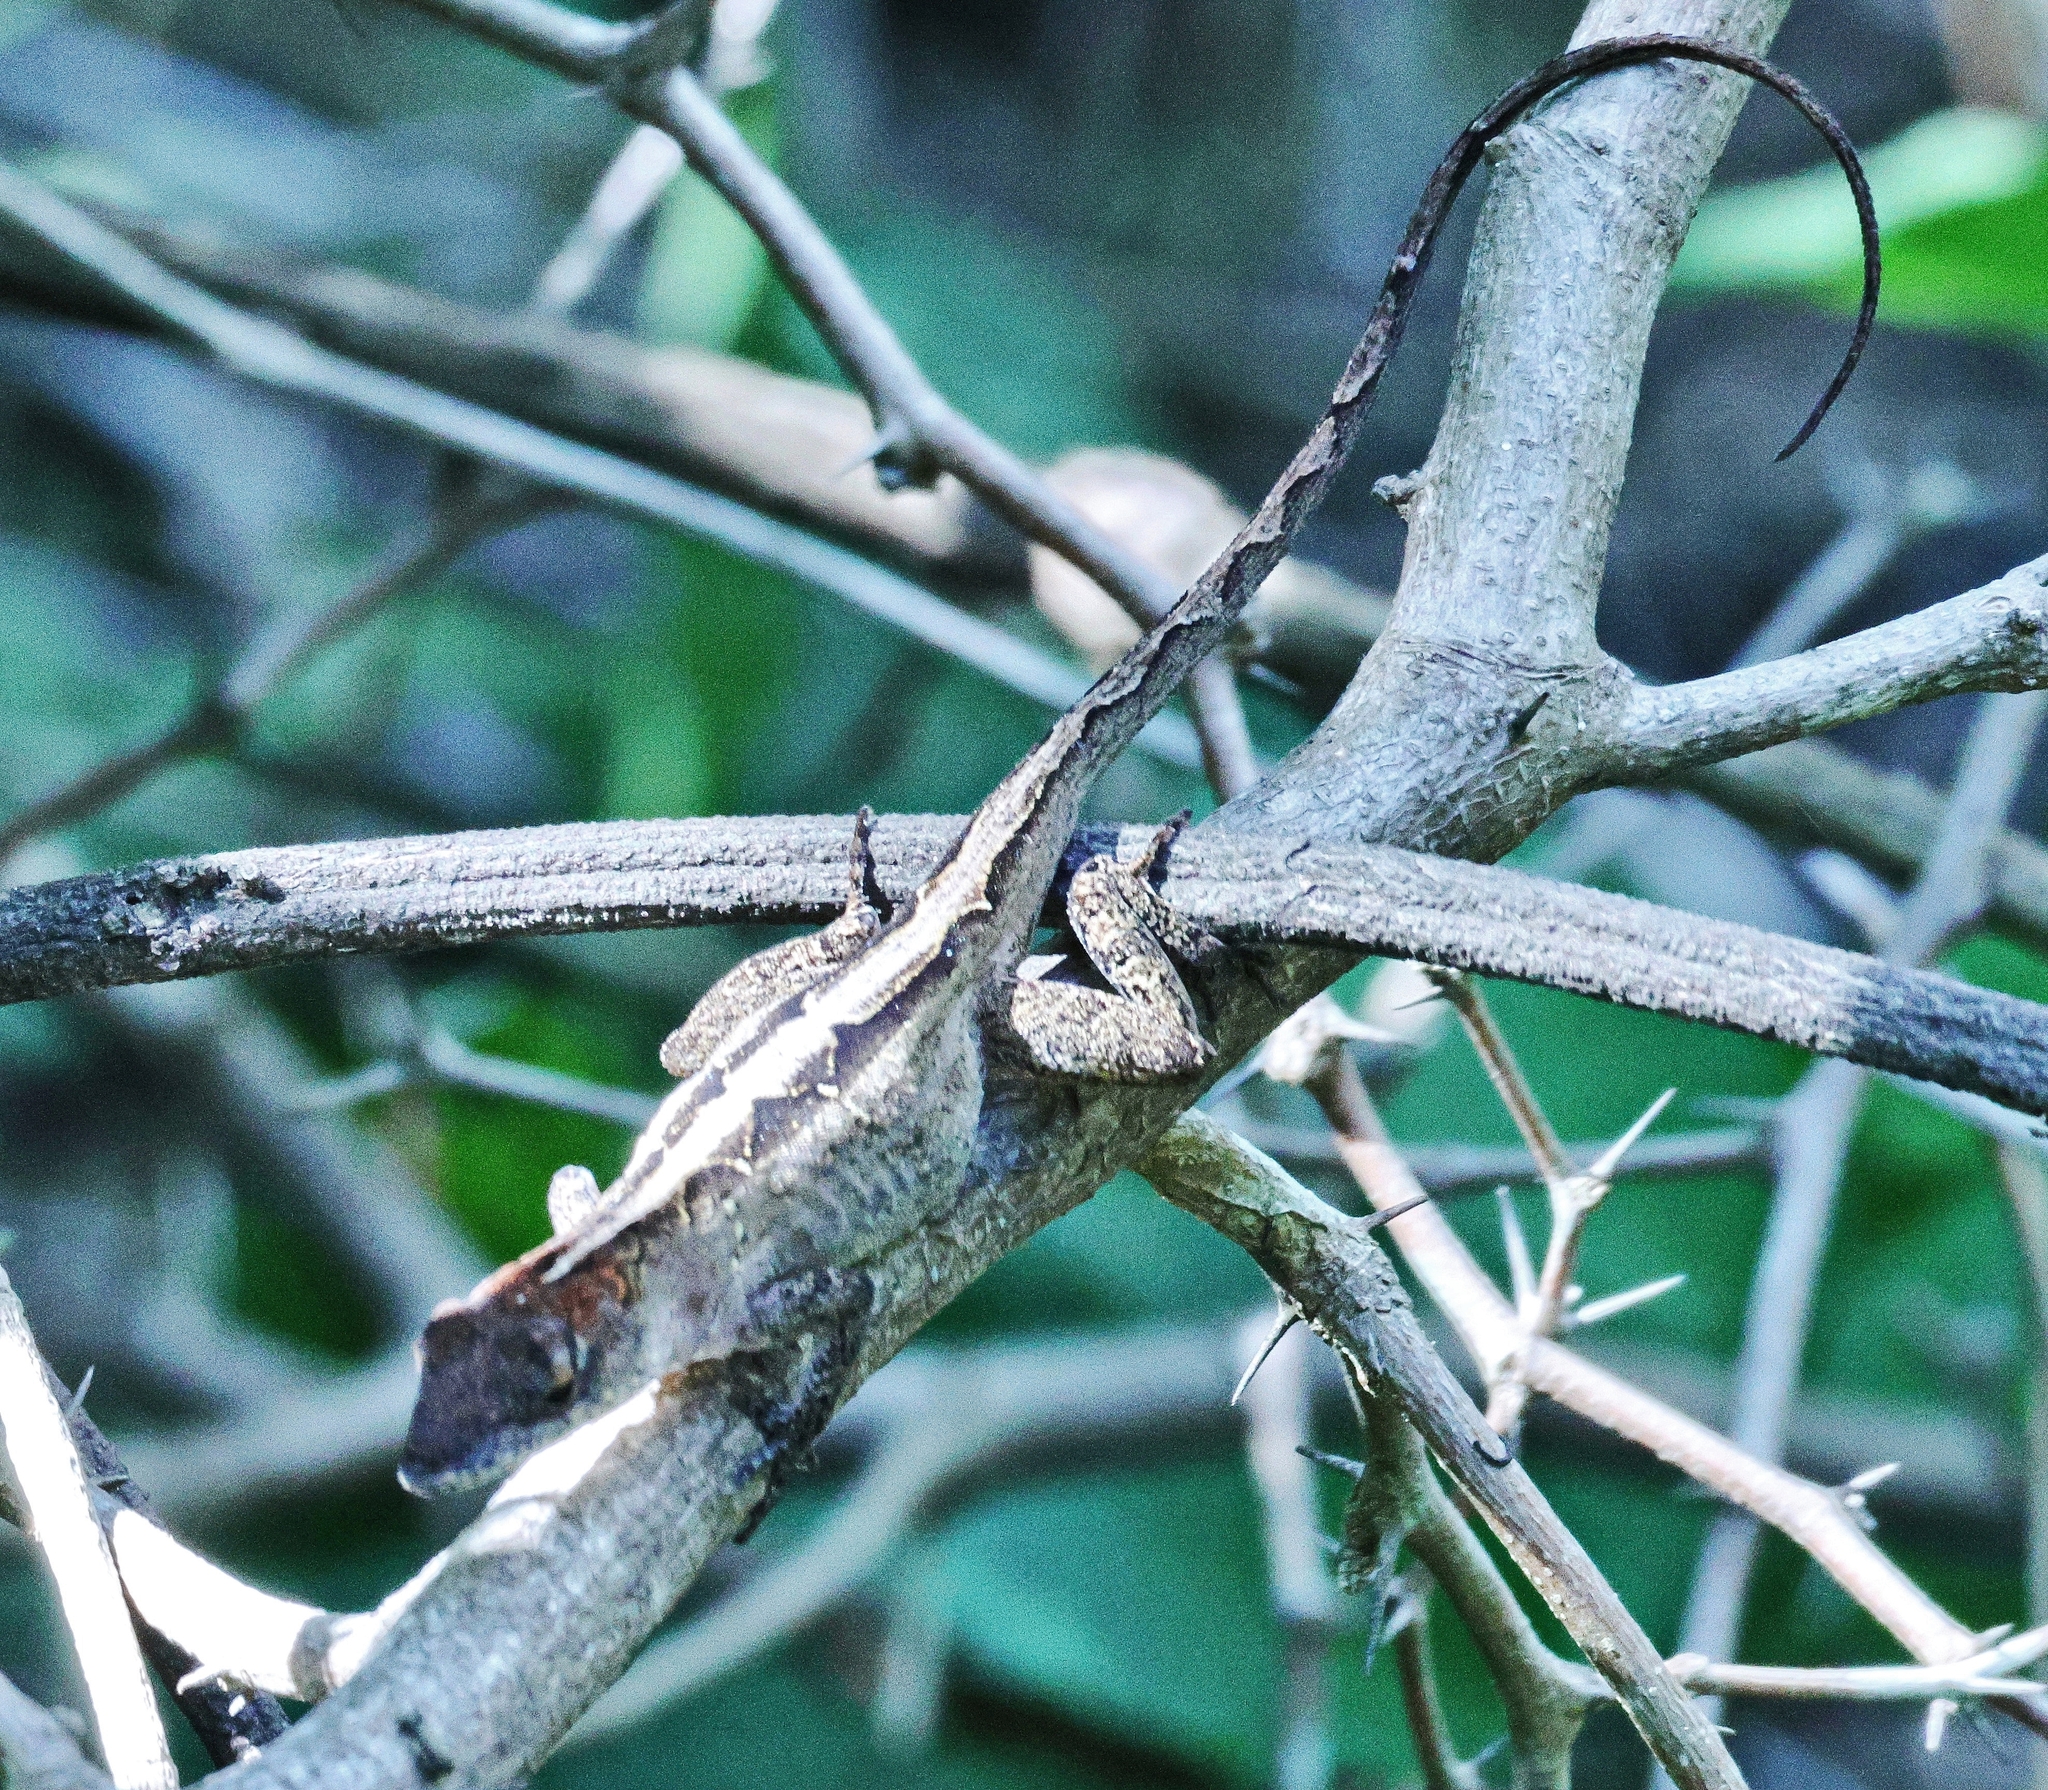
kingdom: Animalia
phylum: Chordata
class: Squamata
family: Dactyloidae
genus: Anolis
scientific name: Anolis sagrei
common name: Brown anole
